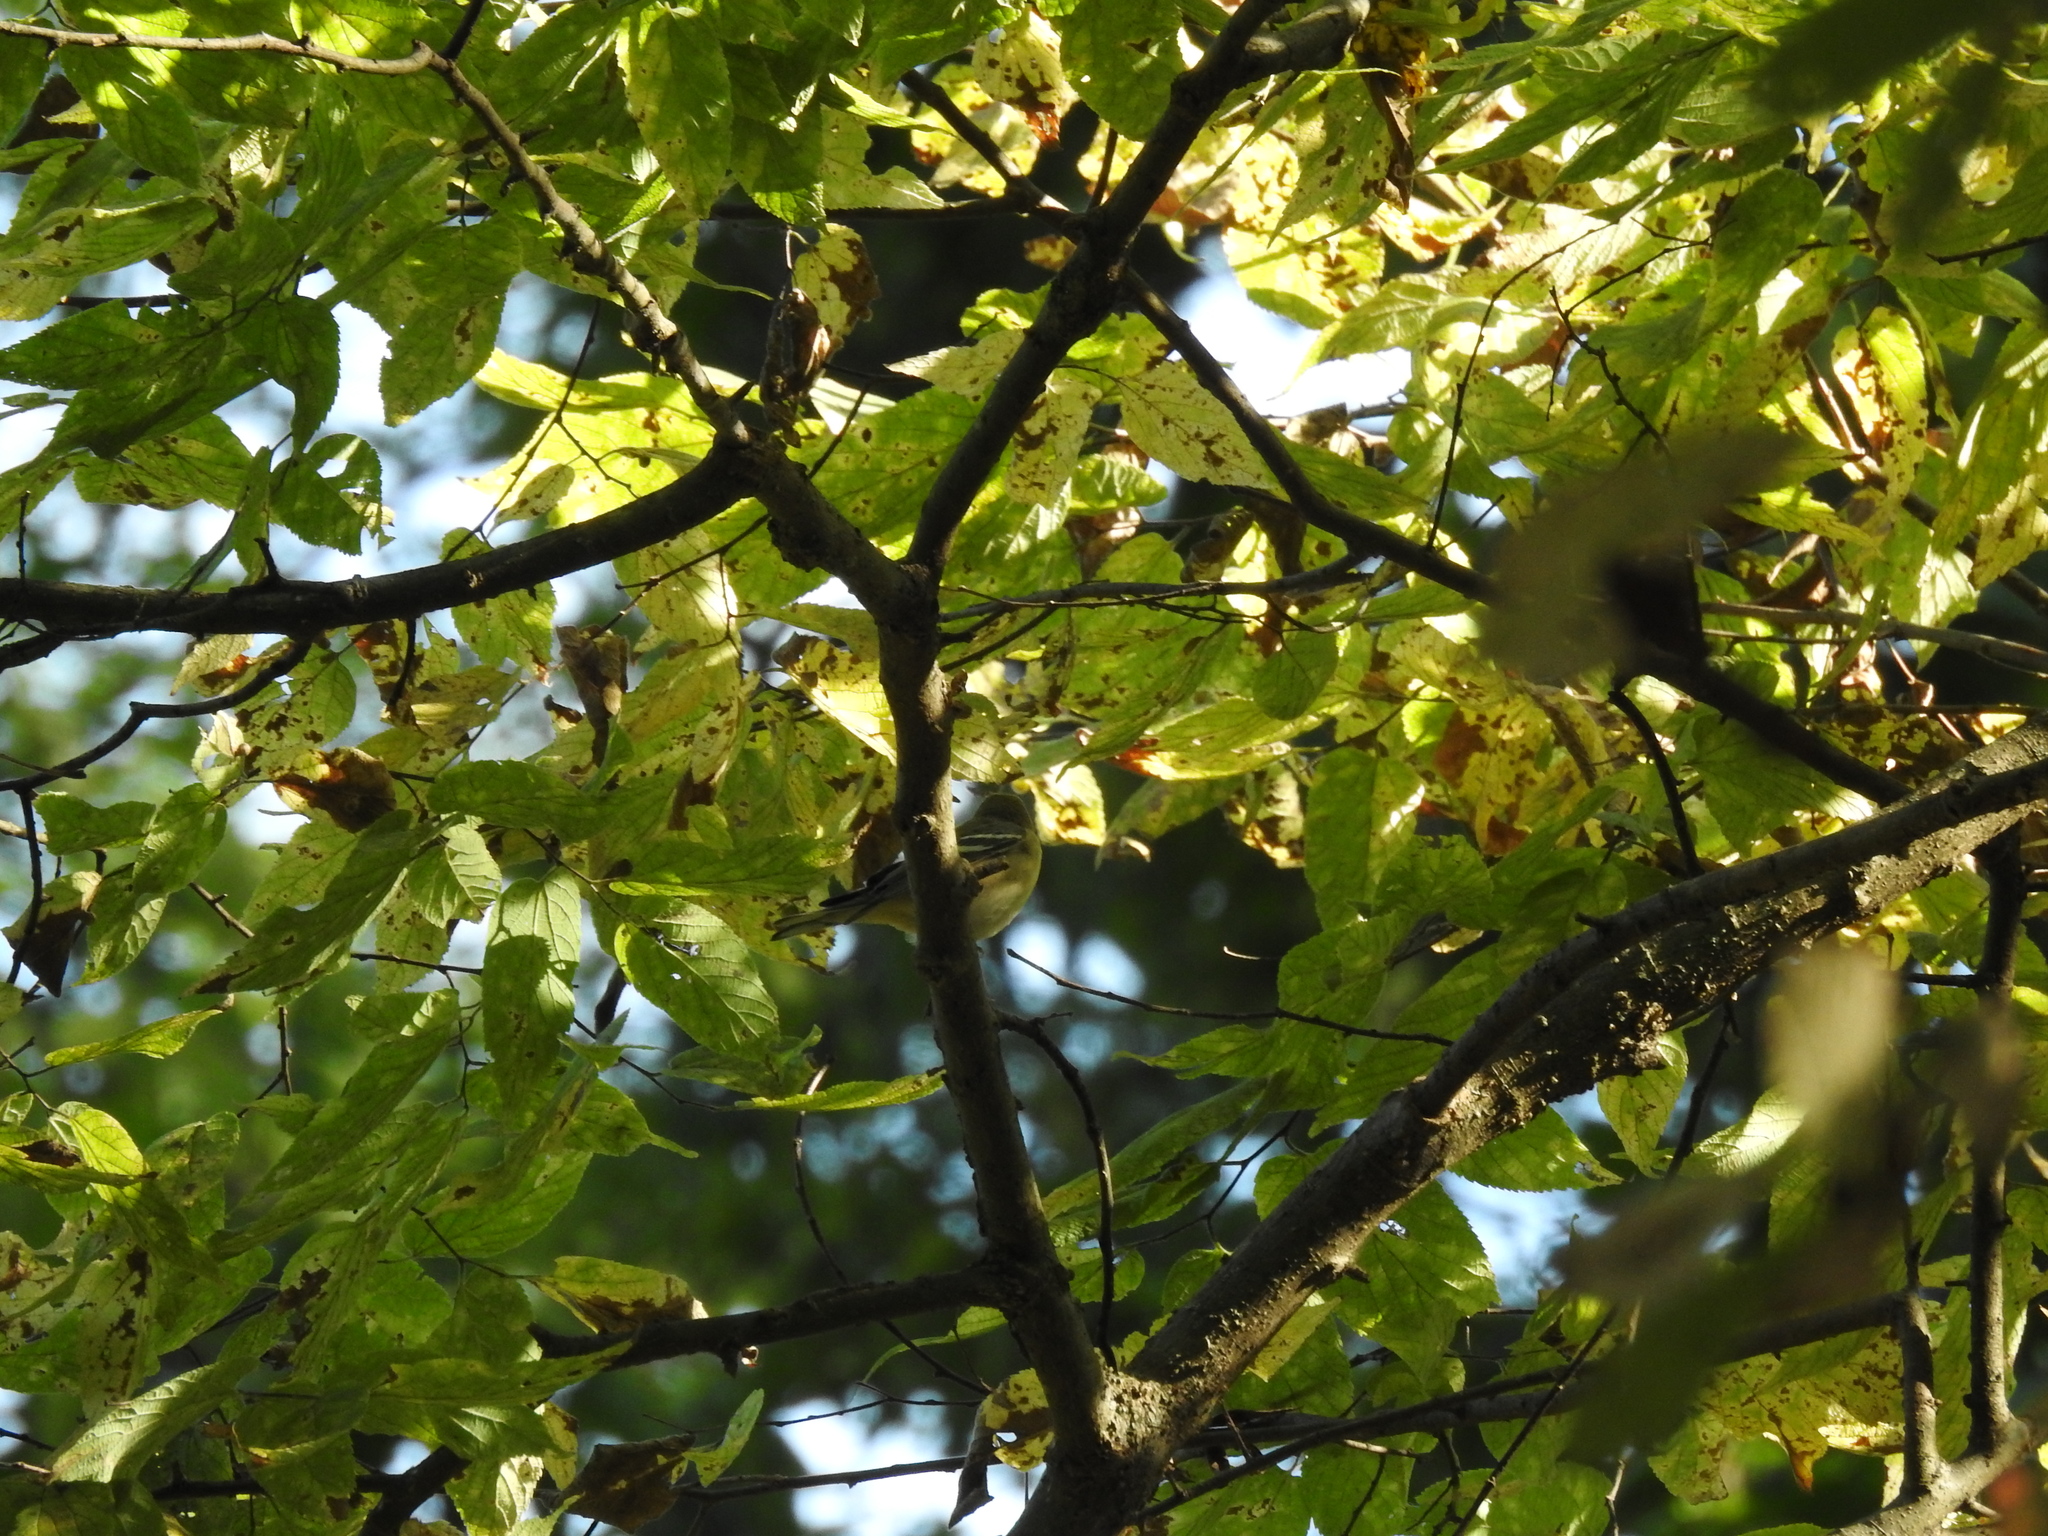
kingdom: Animalia
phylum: Chordata
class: Aves
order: Passeriformes
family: Parulidae
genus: Setophaga
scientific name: Setophaga coronata
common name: Myrtle warbler
